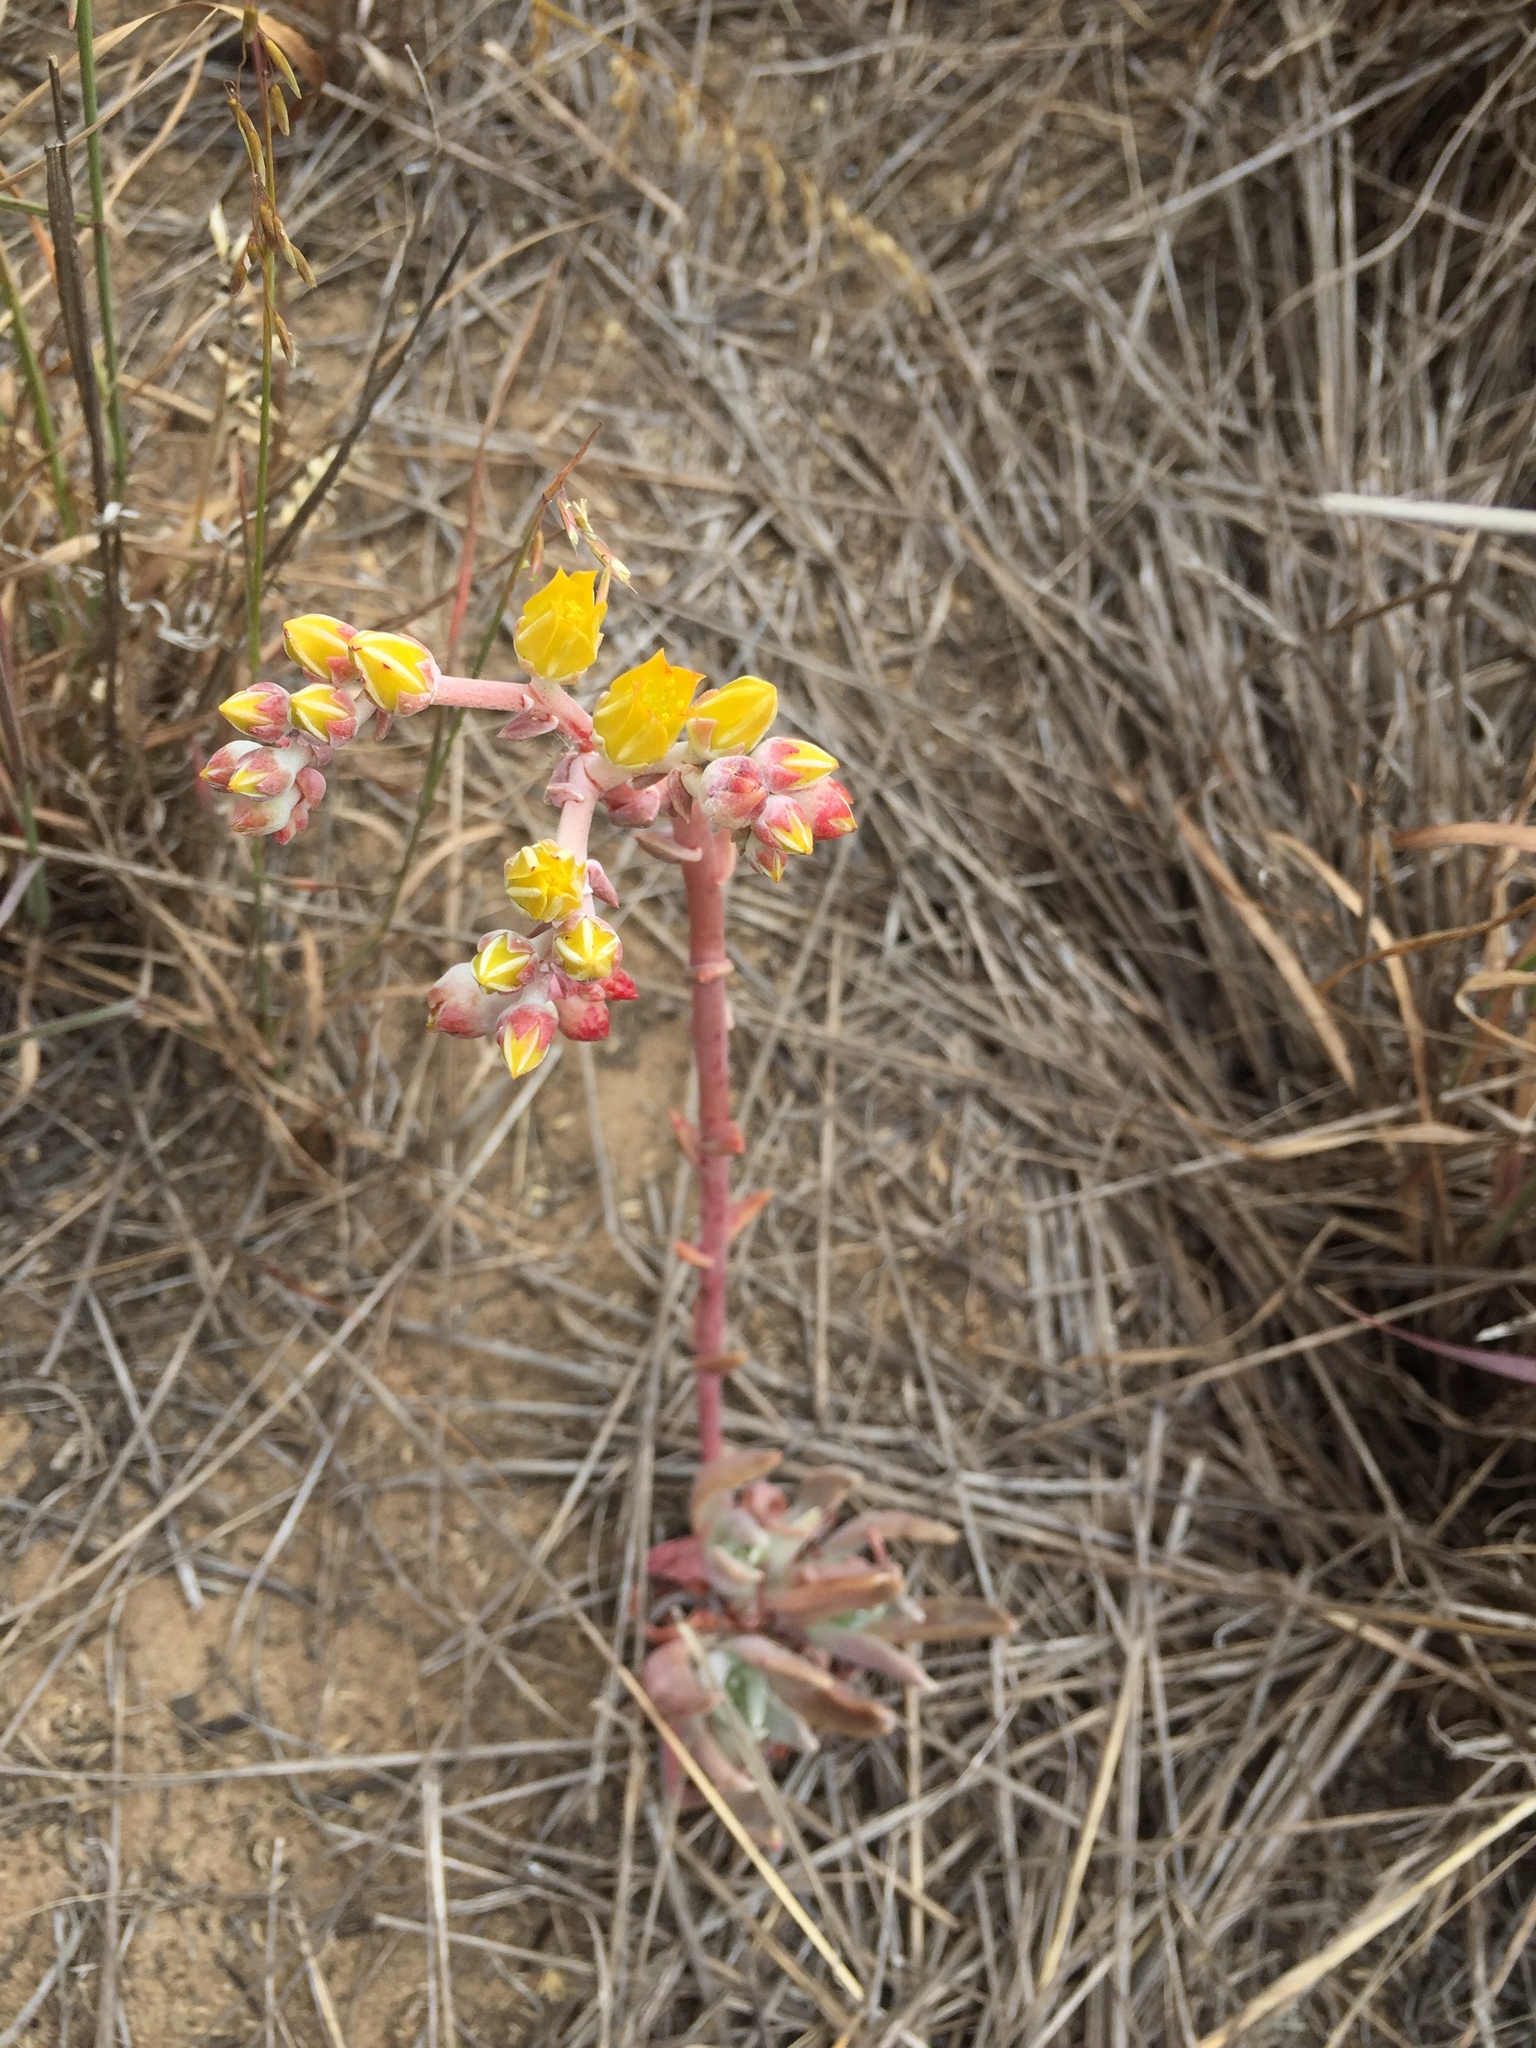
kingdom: Plantae
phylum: Tracheophyta
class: Magnoliopsida
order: Saxifragales
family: Crassulaceae
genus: Dudleya
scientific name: Dudleya caespitosa
